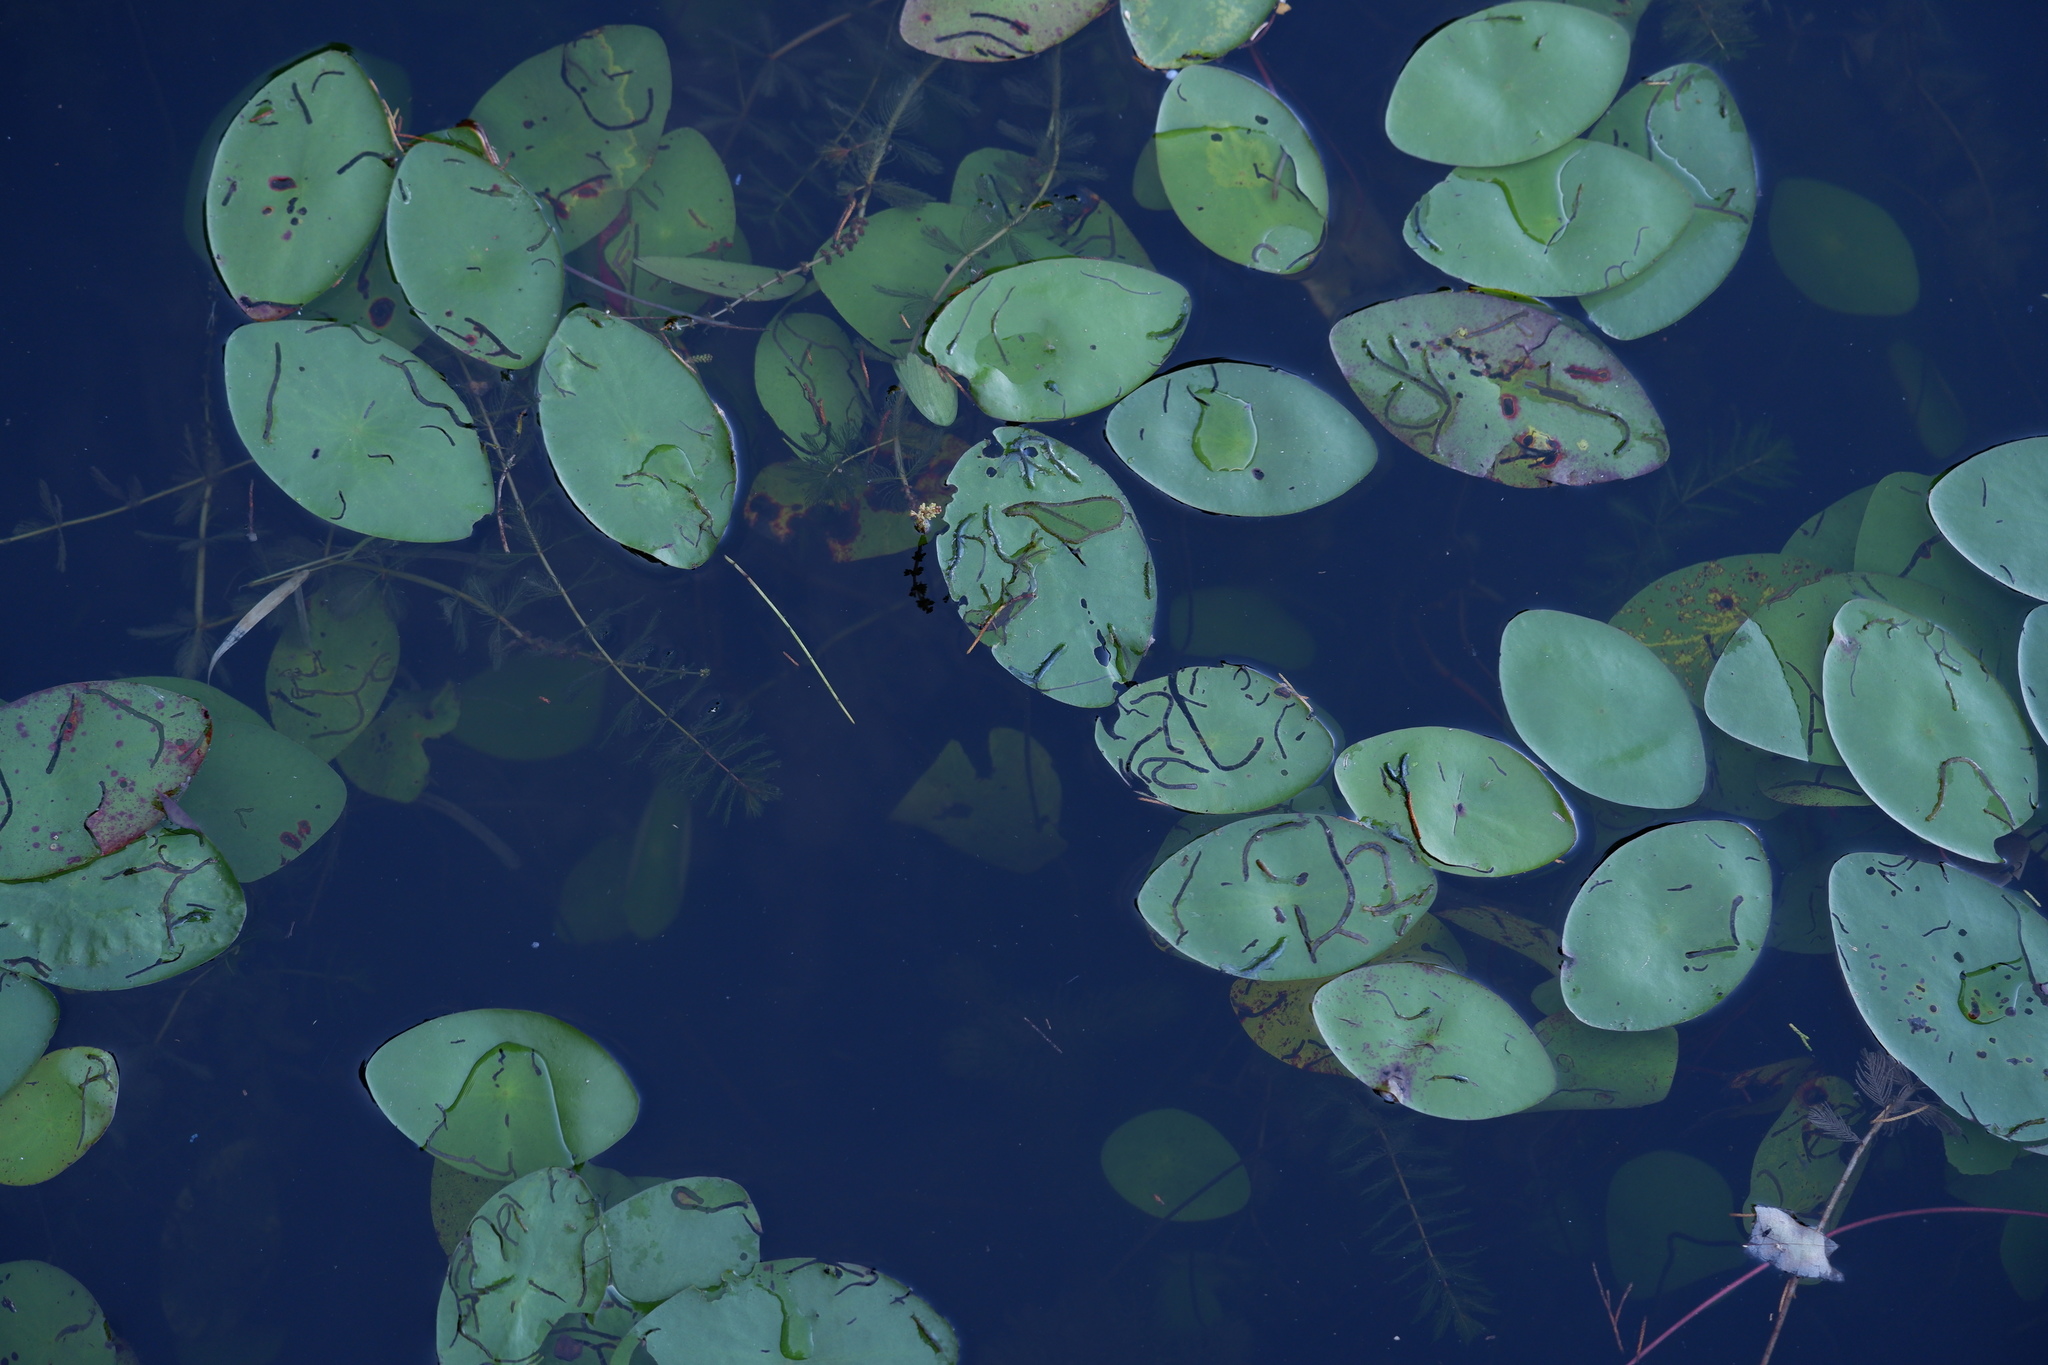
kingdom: Animalia
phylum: Arthropoda
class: Insecta
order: Diptera
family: Chironomidae
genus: Polypedilum
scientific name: Polypedilum braseniae
